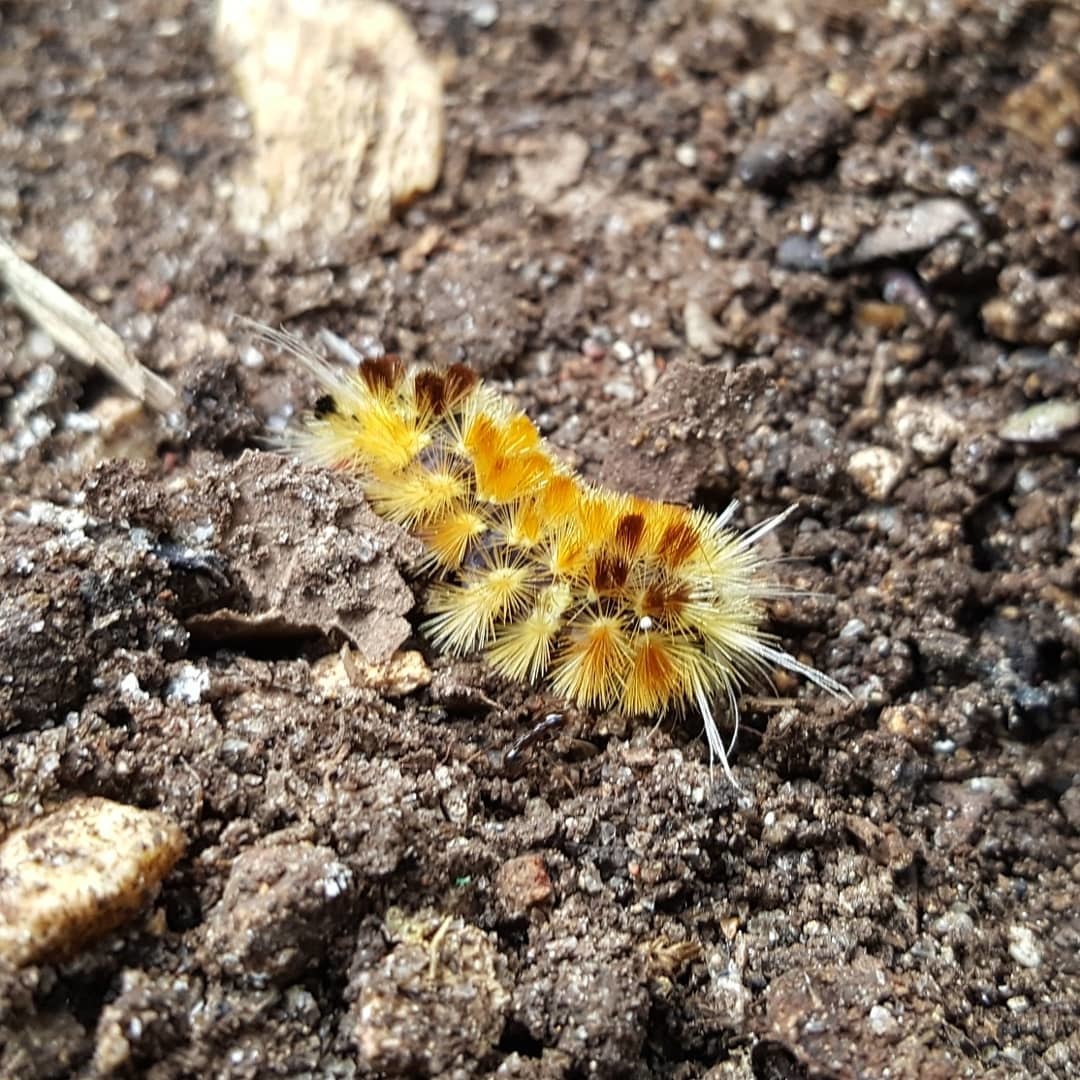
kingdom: Animalia
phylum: Arthropoda
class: Insecta
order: Lepidoptera
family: Erebidae
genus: Lophocampa
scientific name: Lophocampa annulosa
